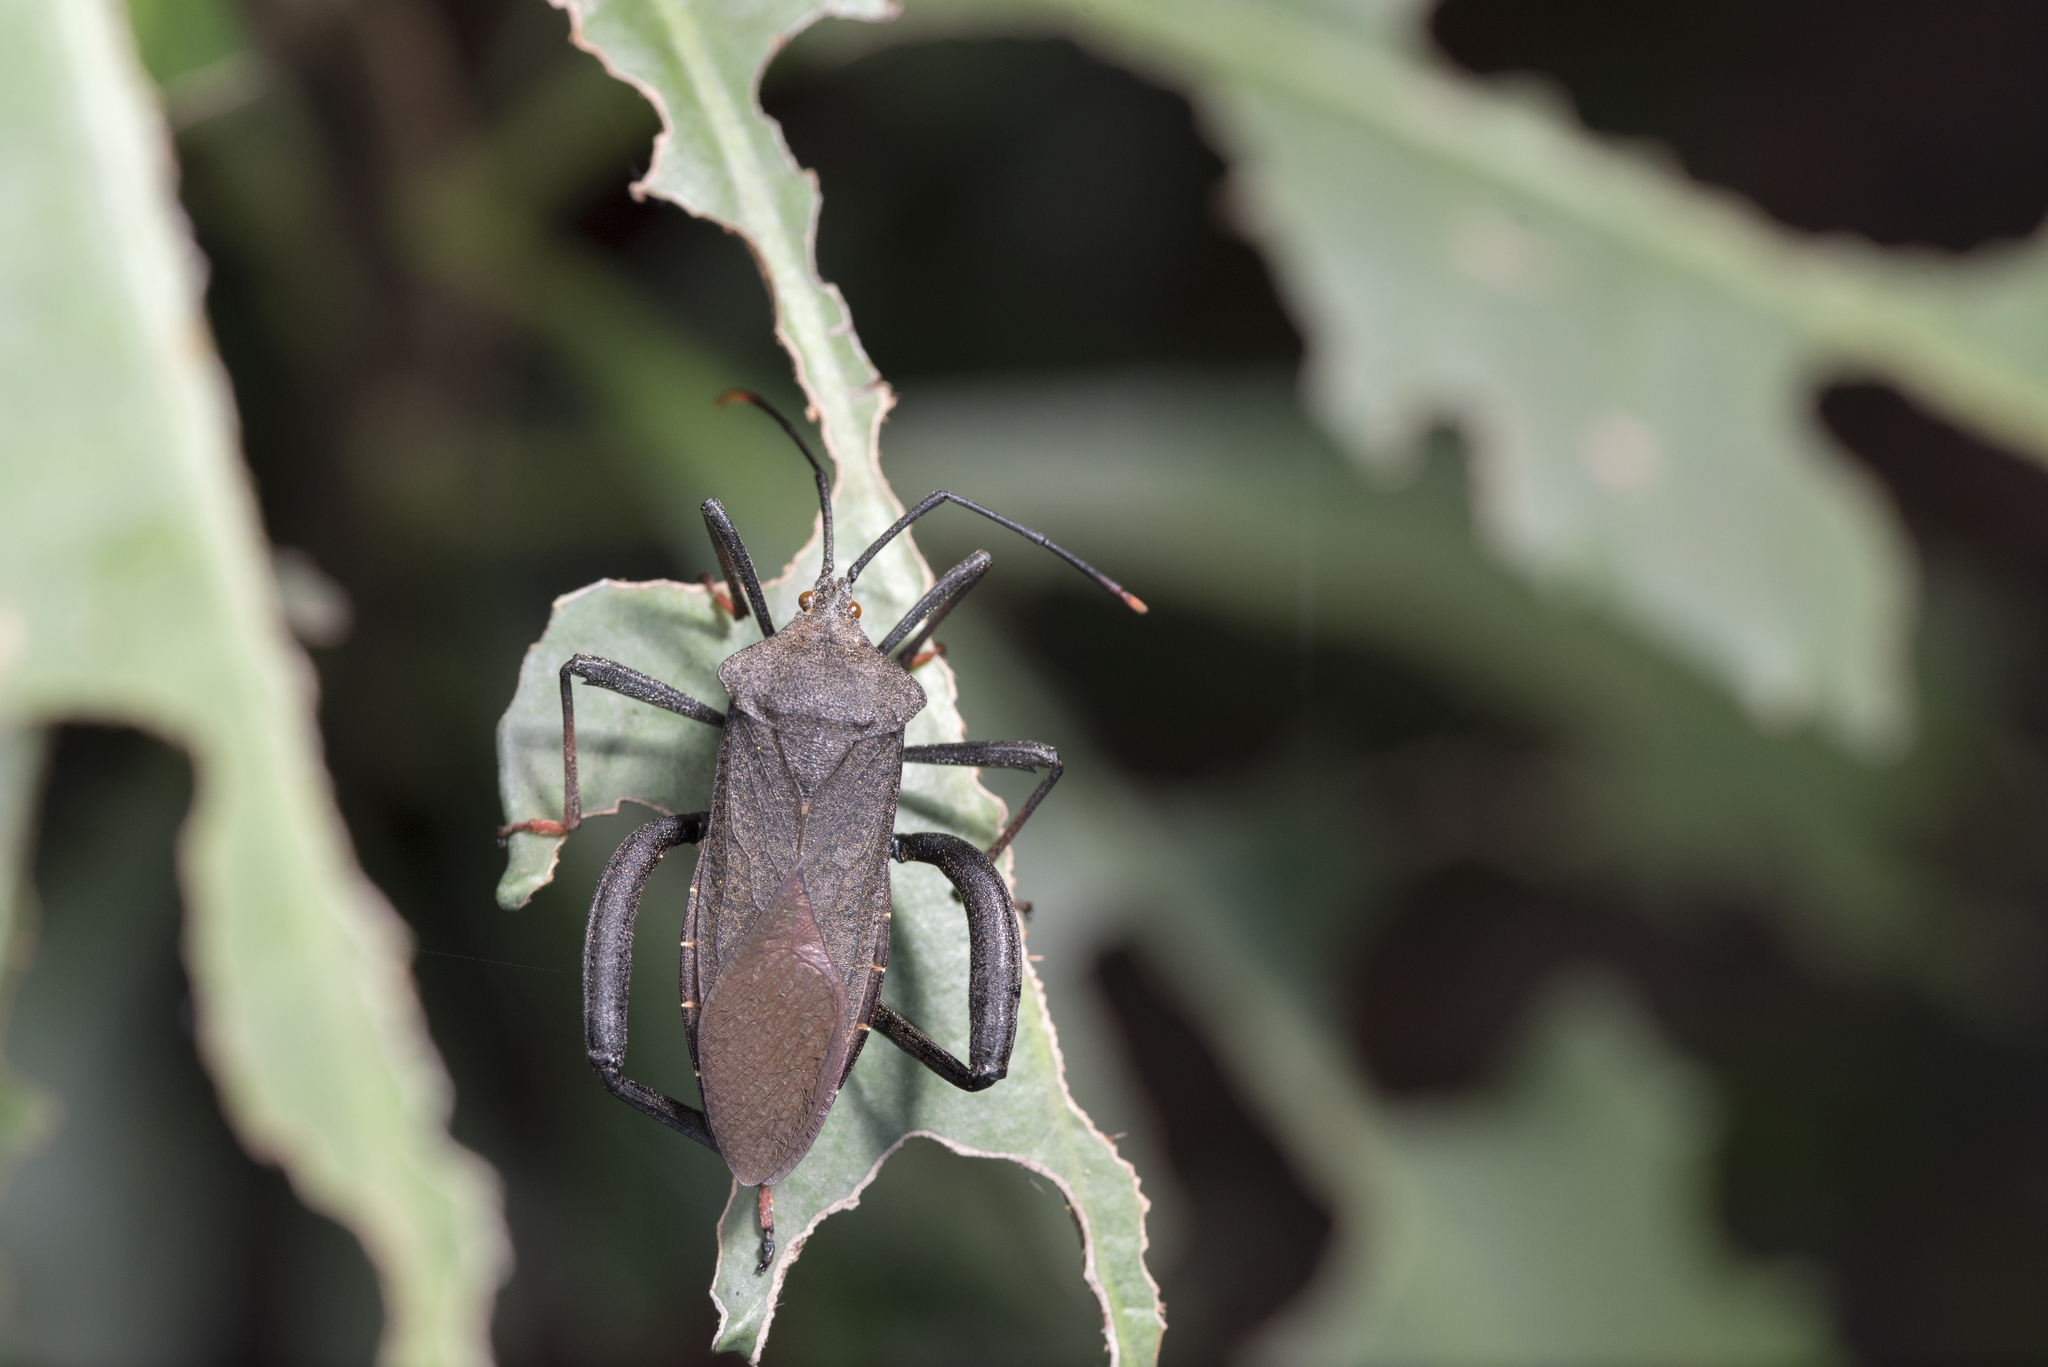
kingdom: Animalia
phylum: Arthropoda
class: Insecta
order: Hemiptera
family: Coreidae
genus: Mictis
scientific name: Mictis fuscipes
